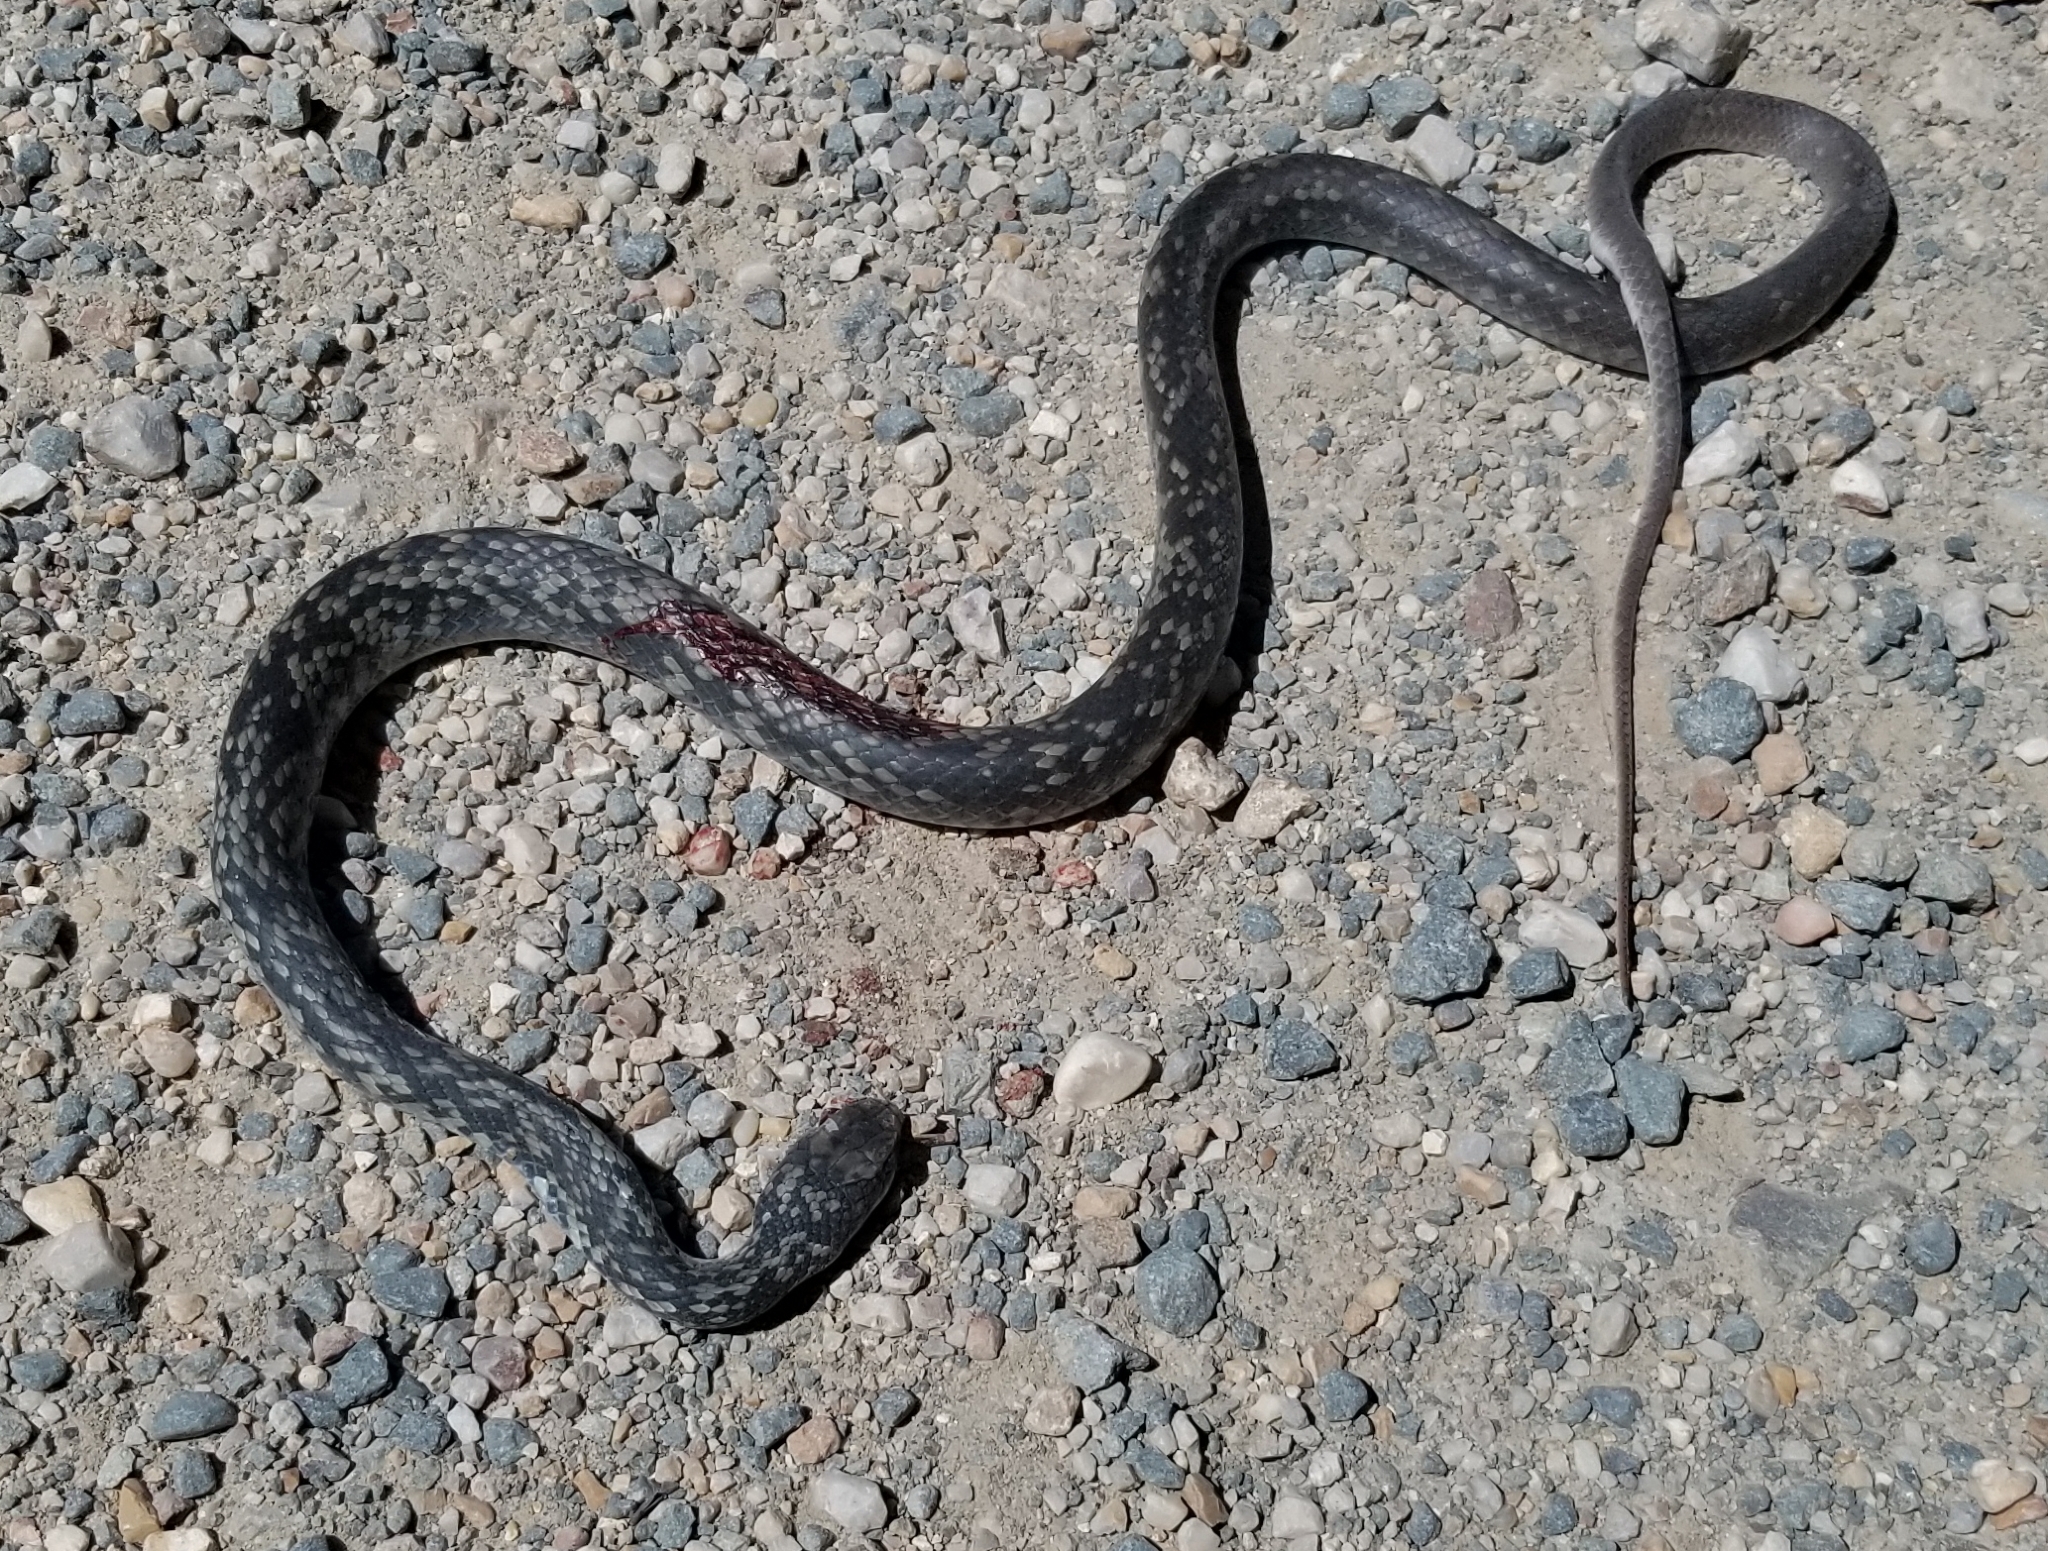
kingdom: Animalia
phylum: Chordata
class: Squamata
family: Colubridae
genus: Coluber
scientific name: Coluber constrictor
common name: Eastern racer
